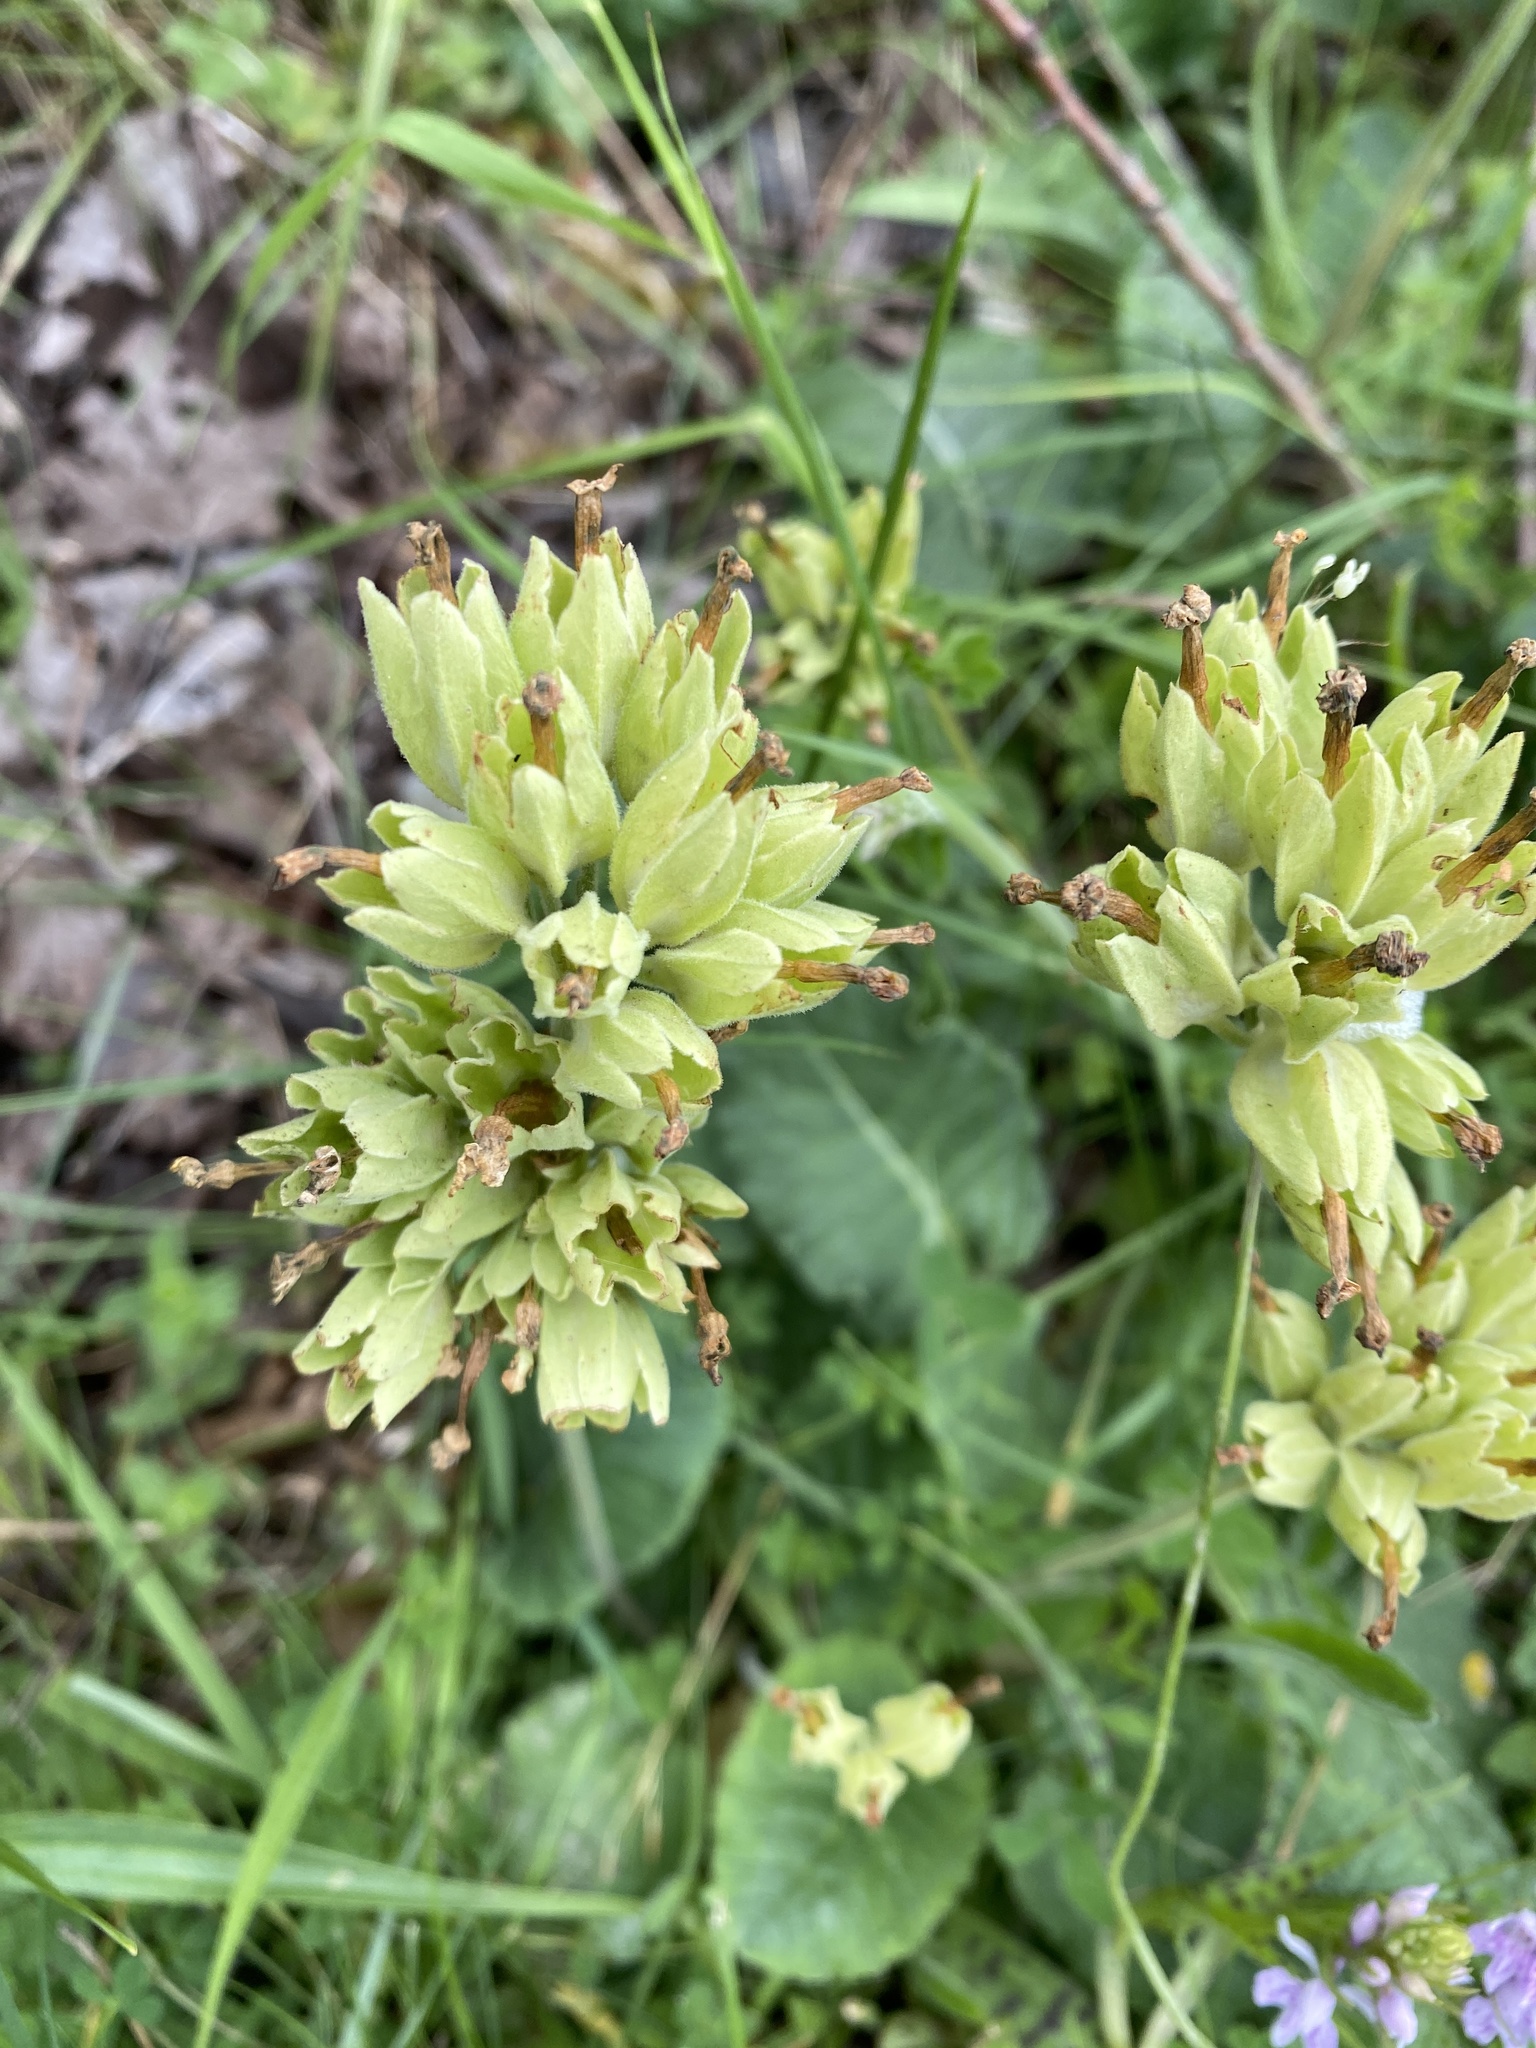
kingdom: Plantae
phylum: Tracheophyta
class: Magnoliopsida
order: Ericales
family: Primulaceae
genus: Primula
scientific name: Primula veris
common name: Cowslip
